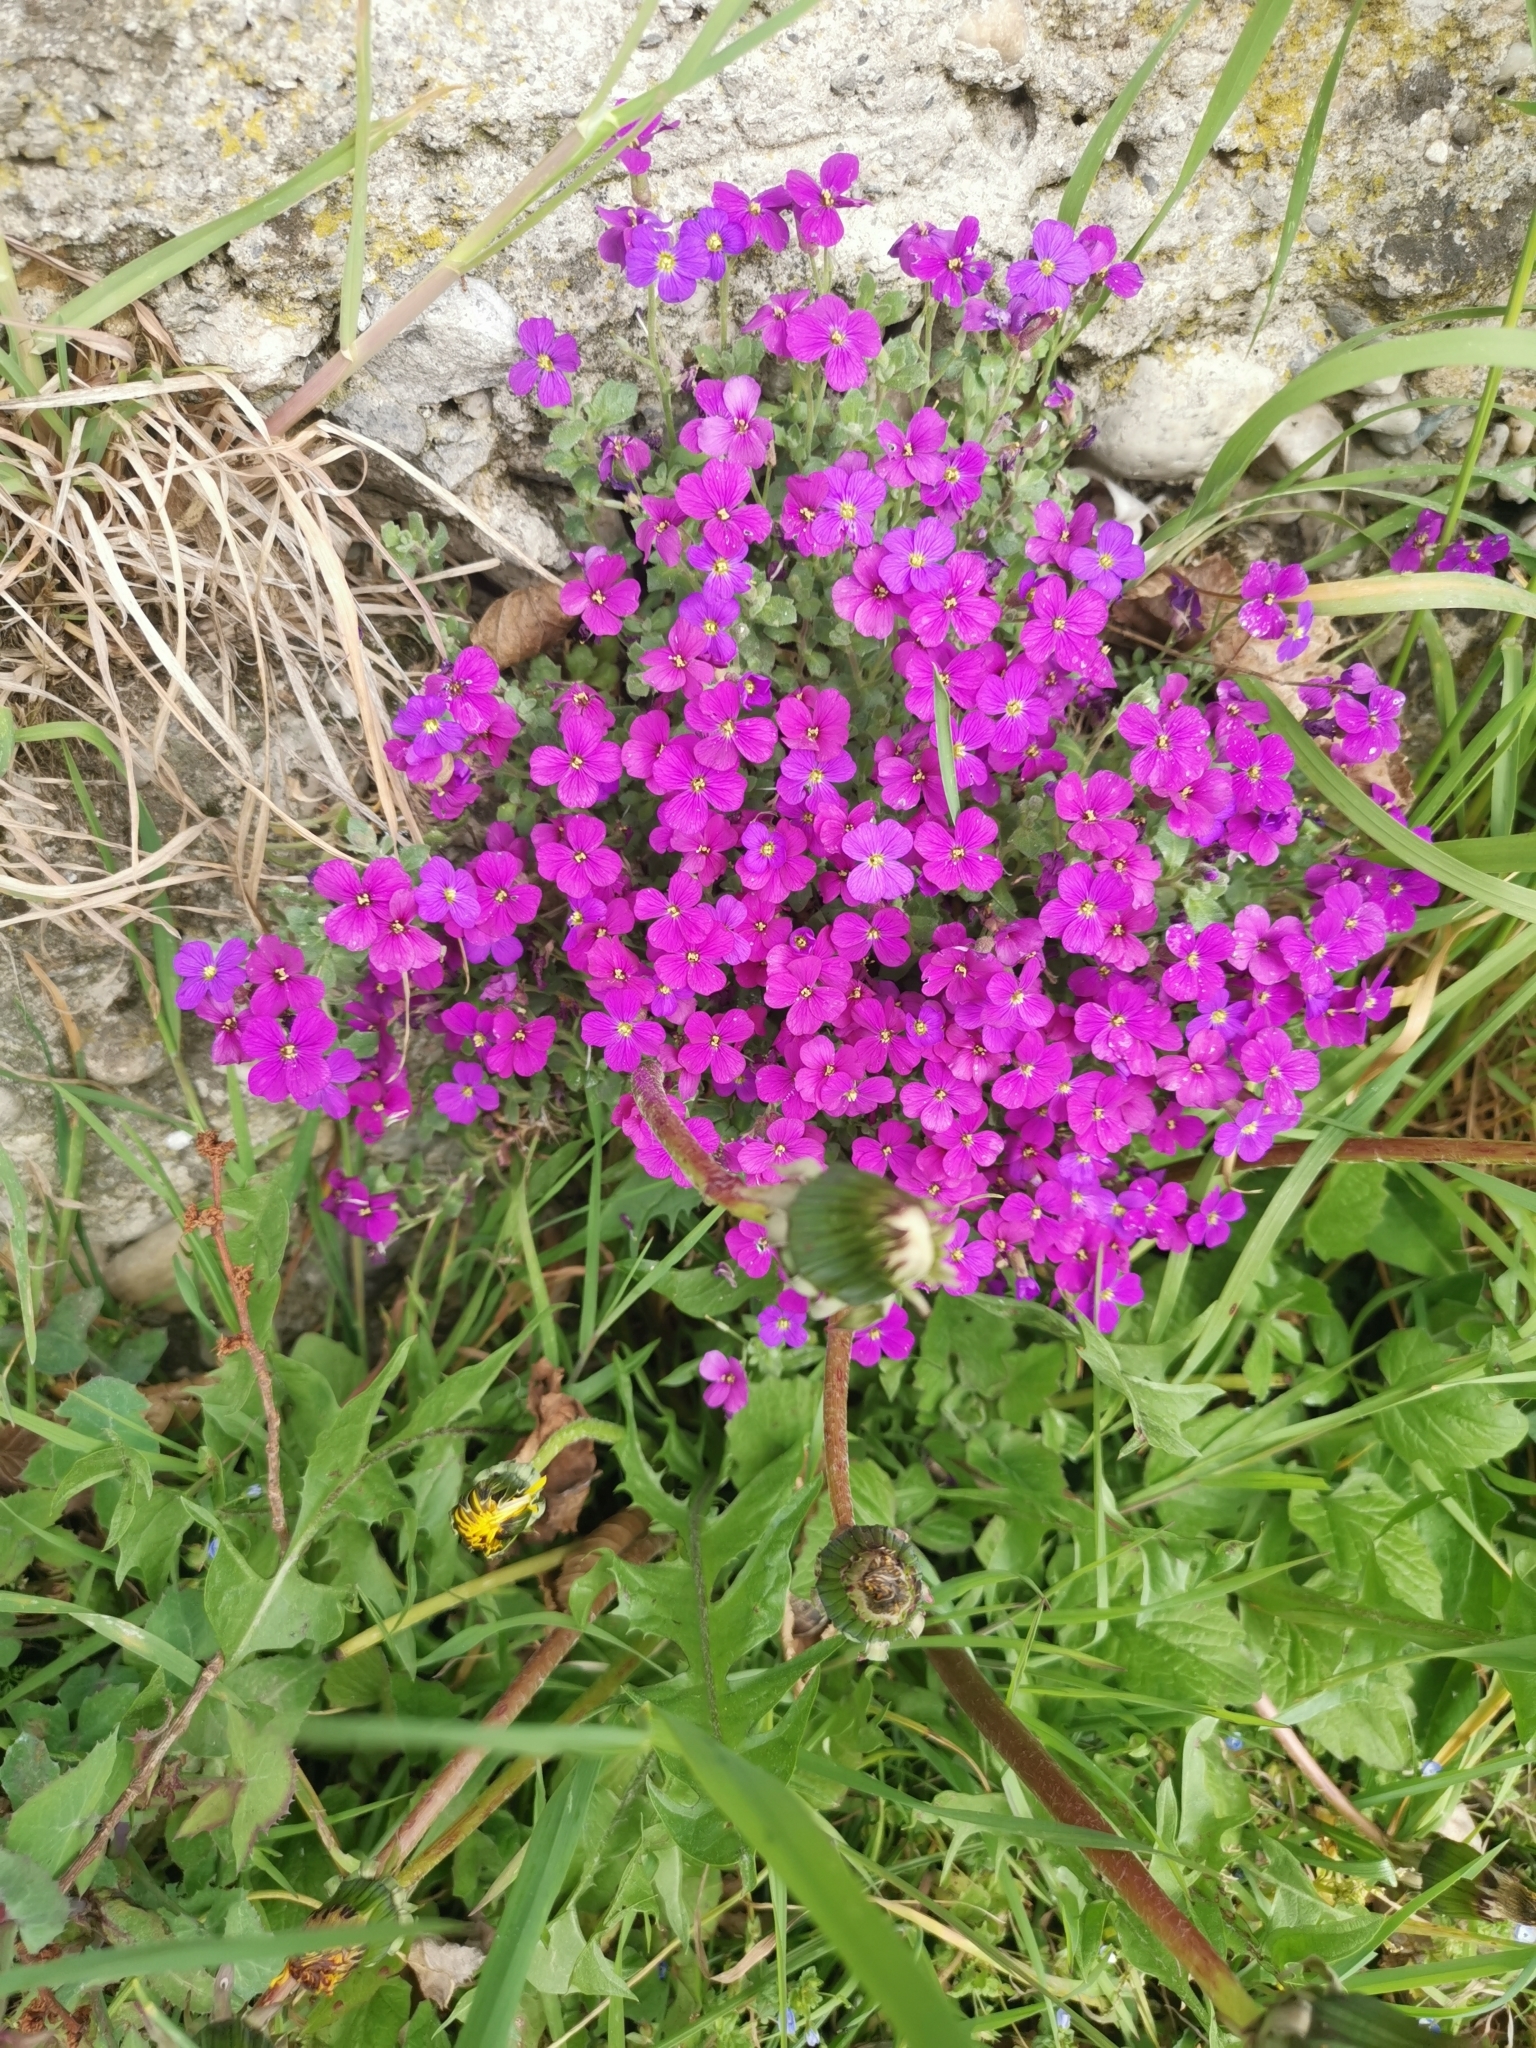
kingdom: Plantae
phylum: Tracheophyta
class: Magnoliopsida
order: Brassicales
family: Brassicaceae
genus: Aubrieta
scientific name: Aubrieta deltoidea
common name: Aubretia
